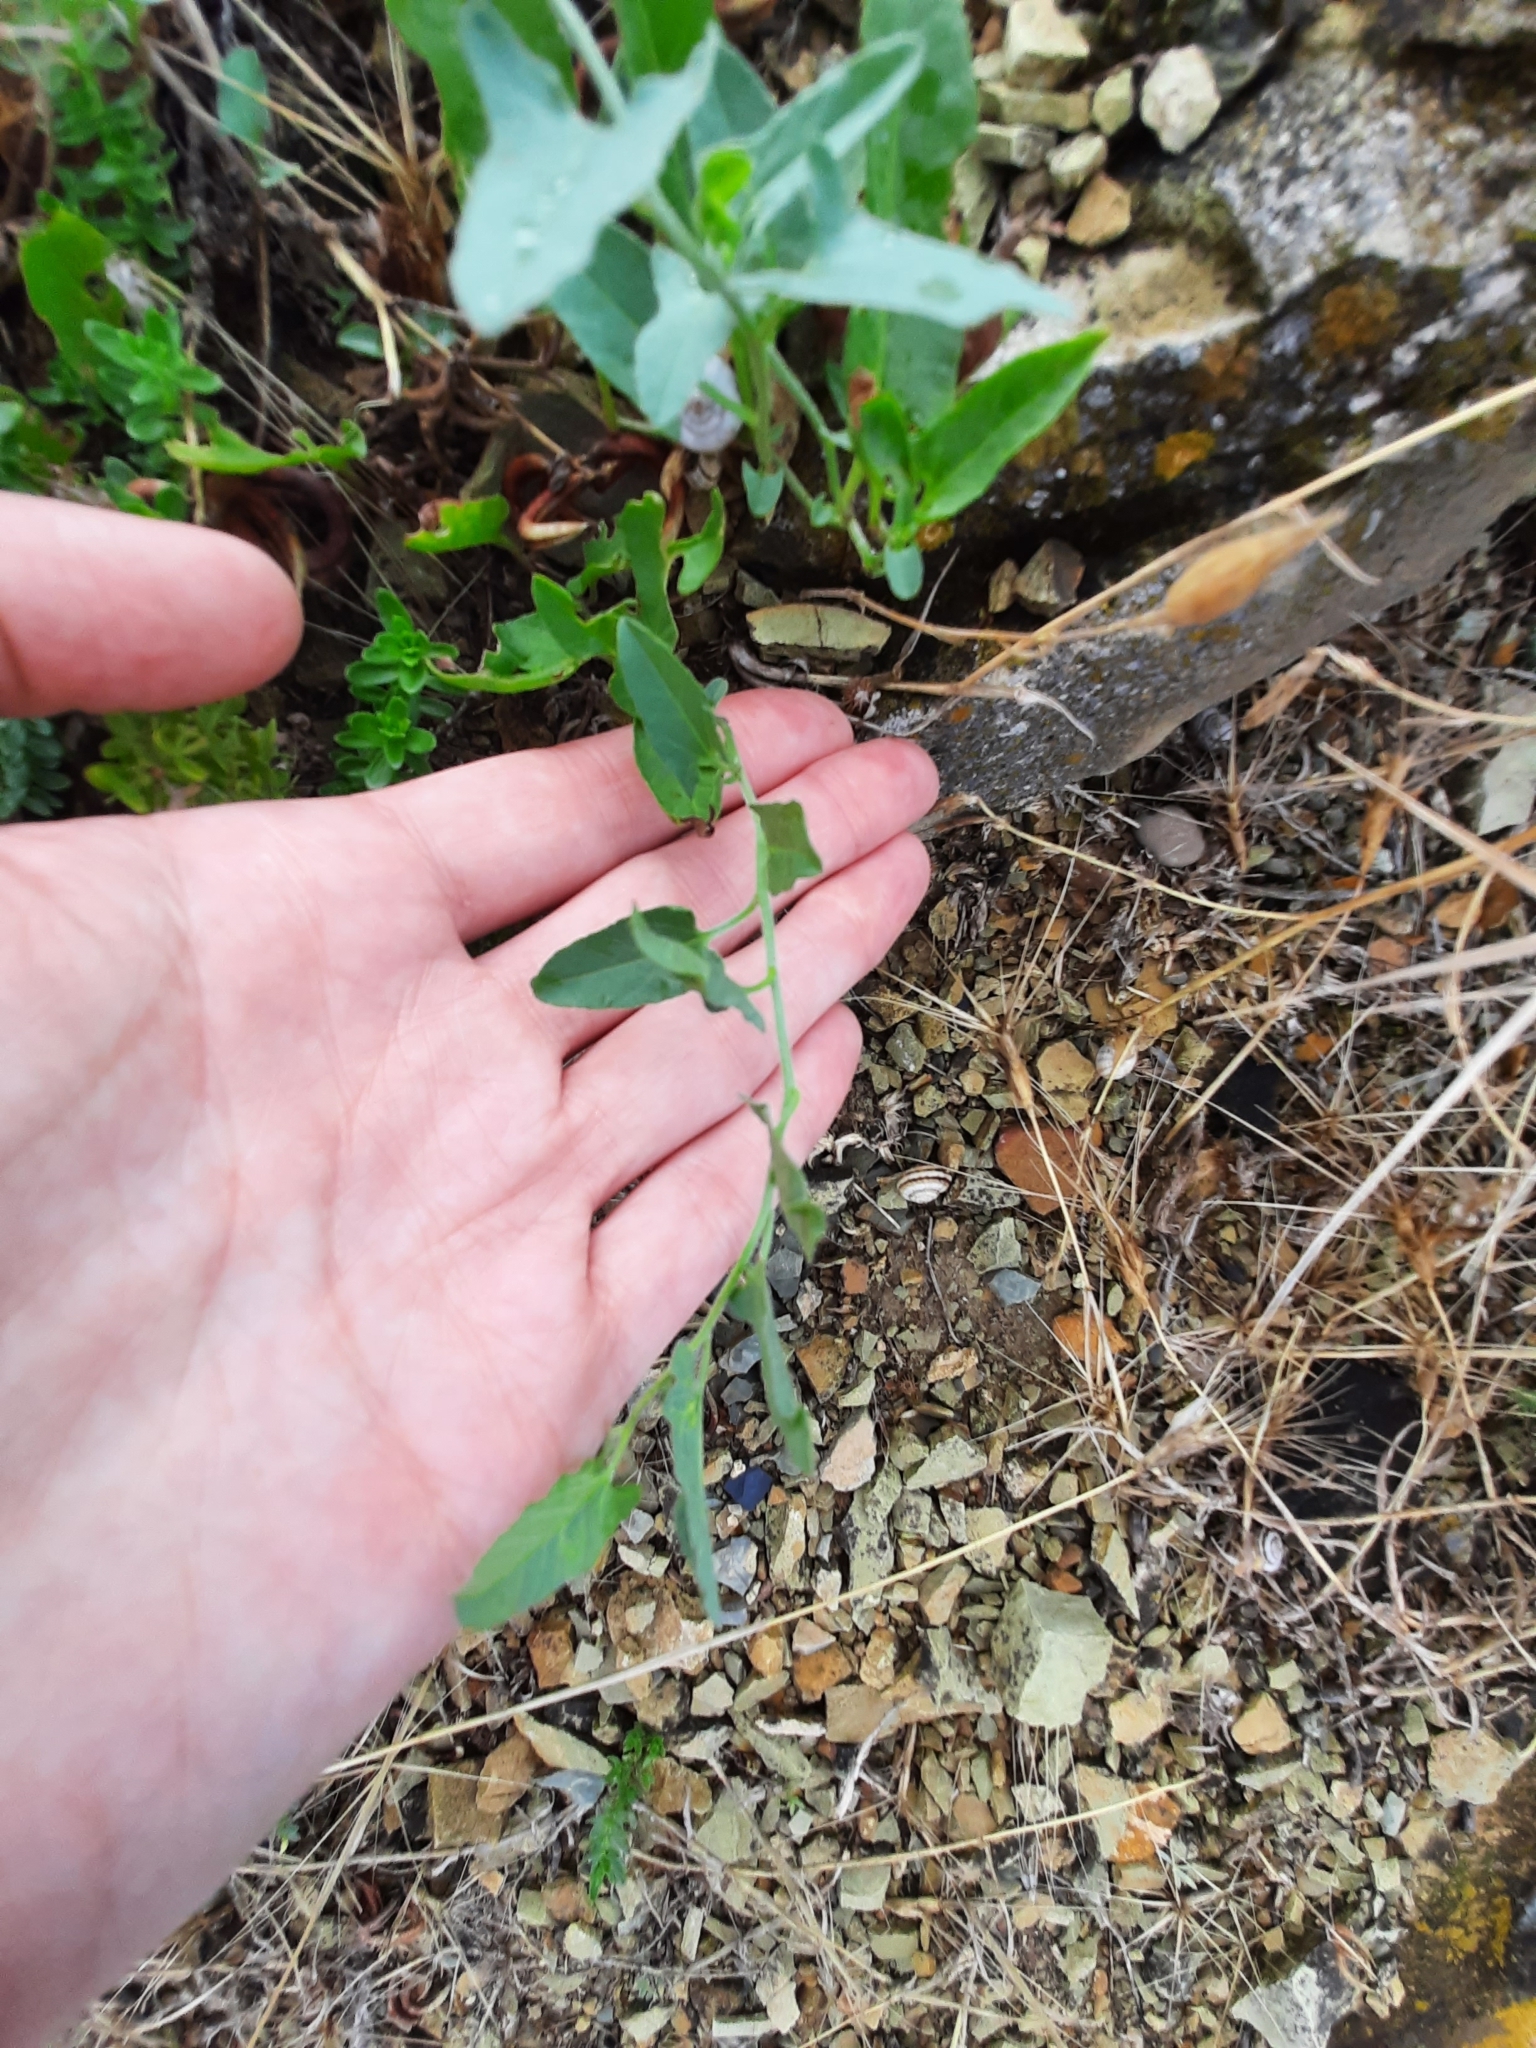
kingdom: Plantae
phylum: Tracheophyta
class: Magnoliopsida
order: Solanales
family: Convolvulaceae
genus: Convolvulus
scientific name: Convolvulus arvensis
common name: Field bindweed
